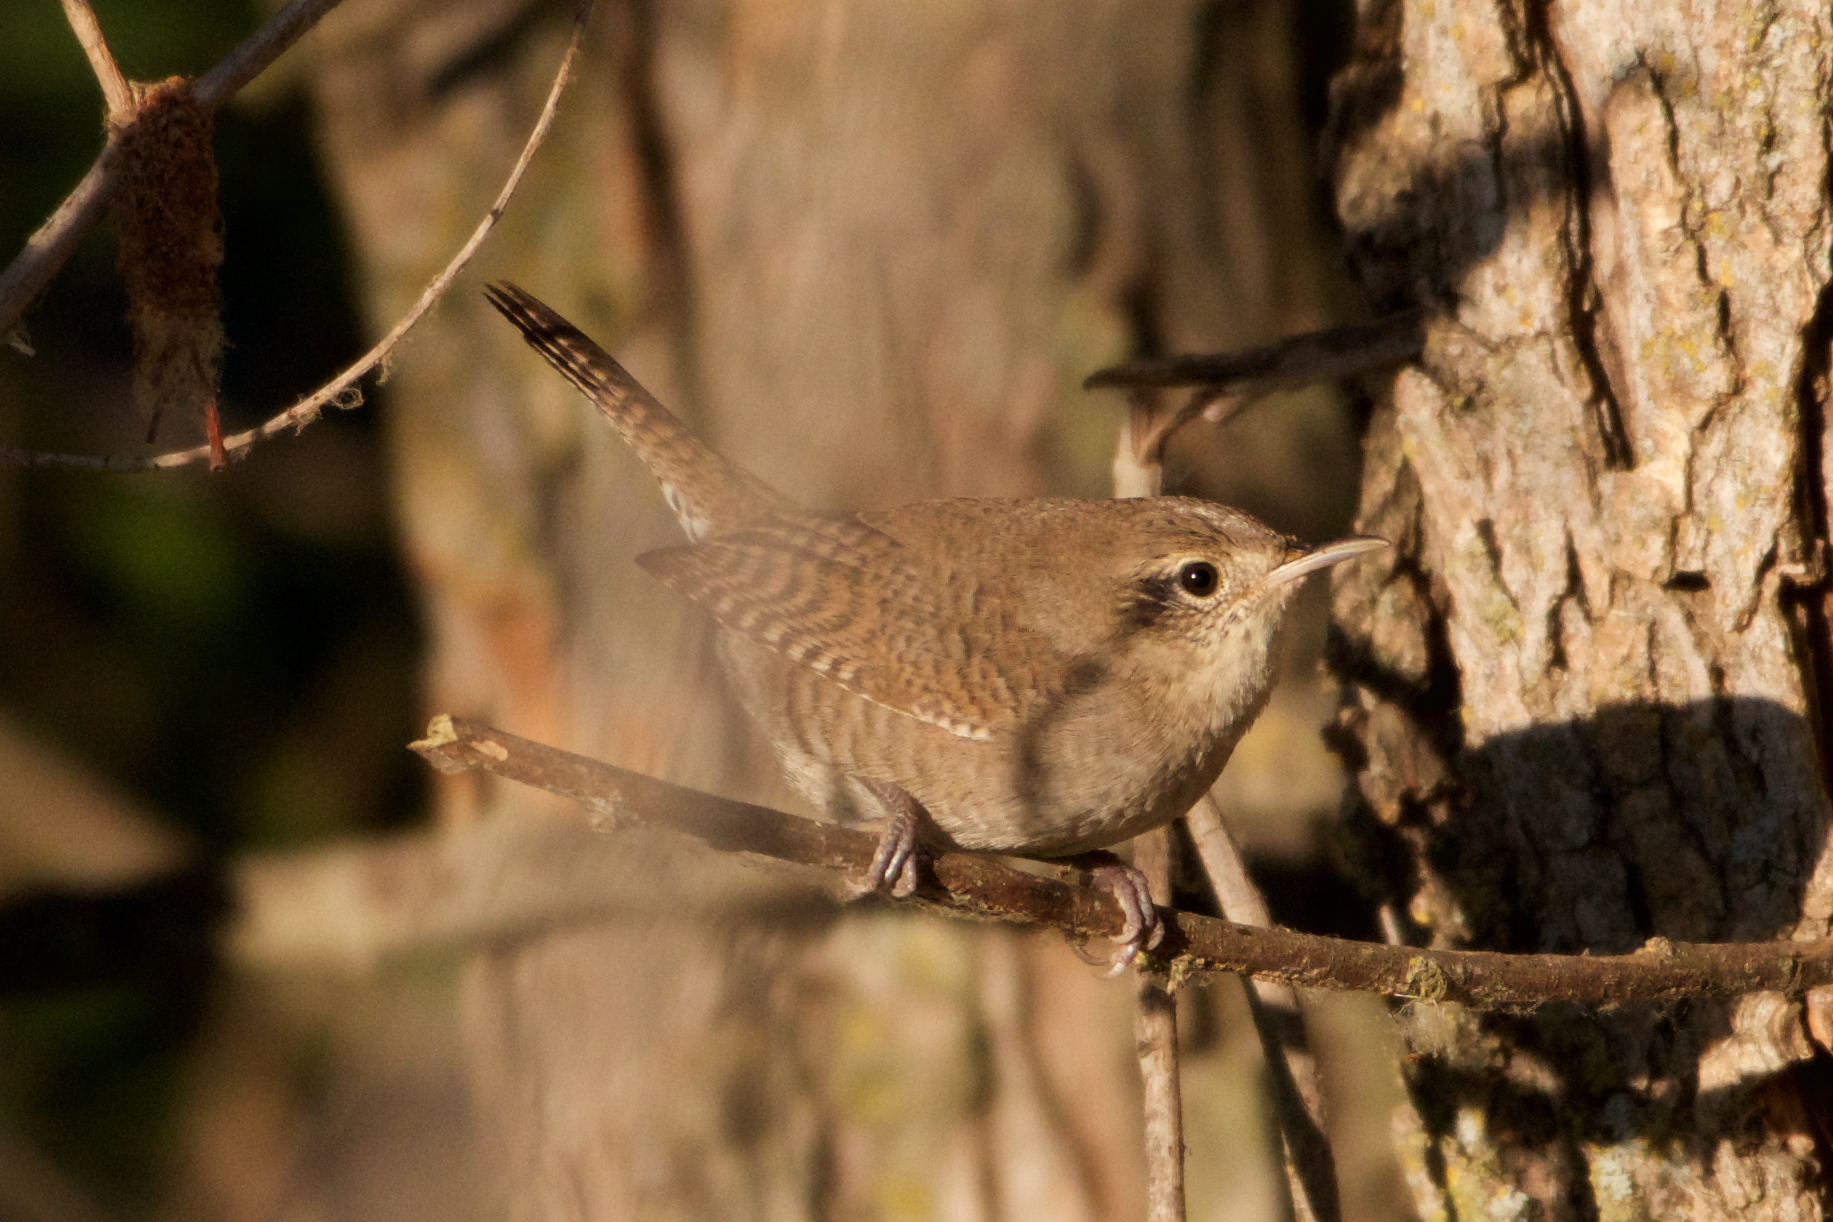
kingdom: Animalia
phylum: Chordata
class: Aves
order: Passeriformes
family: Troglodytidae
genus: Troglodytes
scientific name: Troglodytes aedon
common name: House wren
